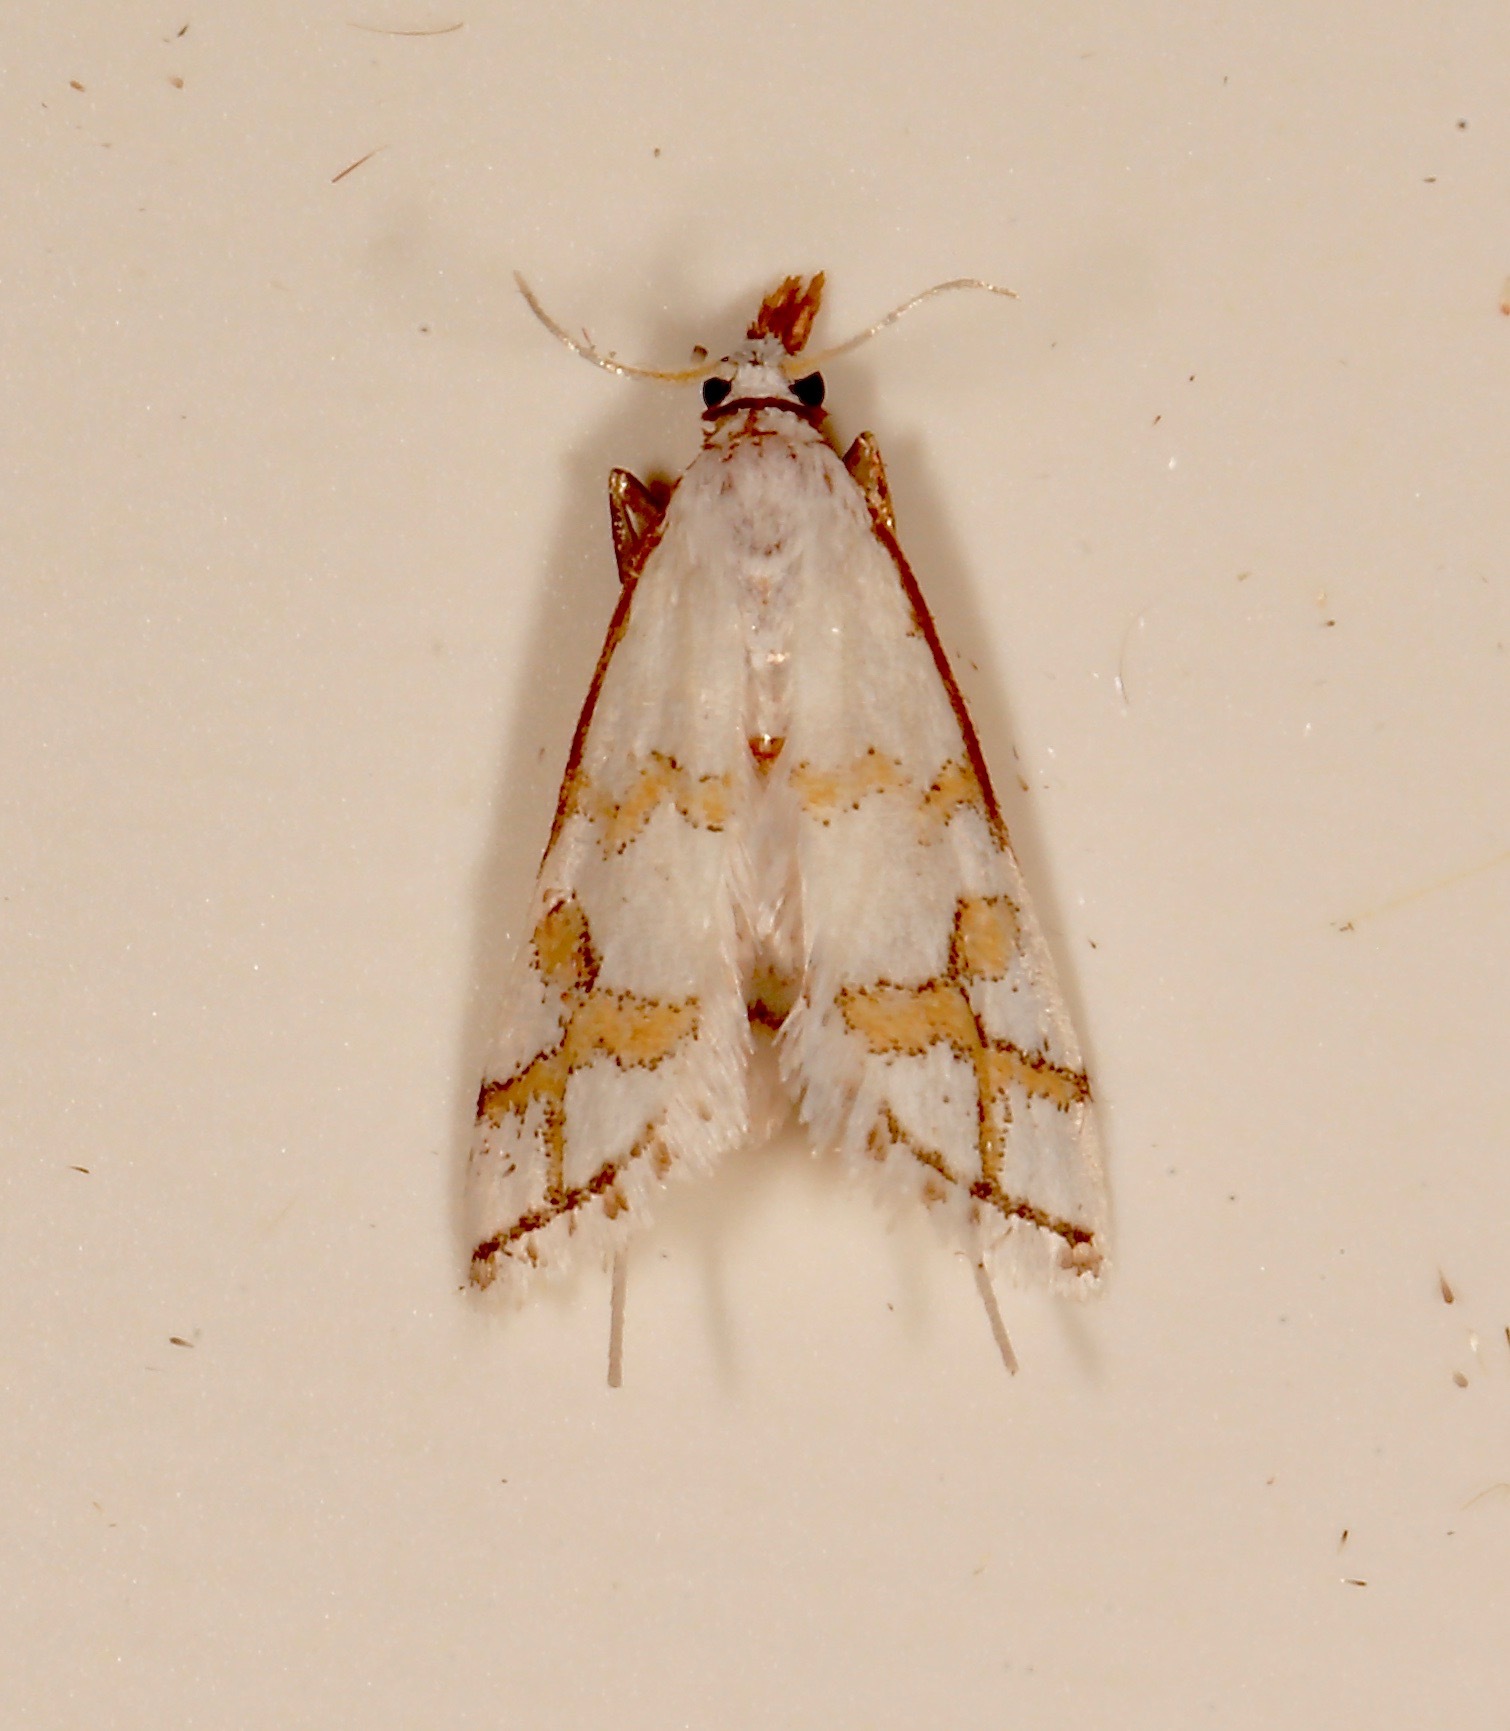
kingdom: Animalia
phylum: Arthropoda
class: Insecta
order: Lepidoptera
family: Crambidae
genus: Leptosteges
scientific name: Leptosteges
